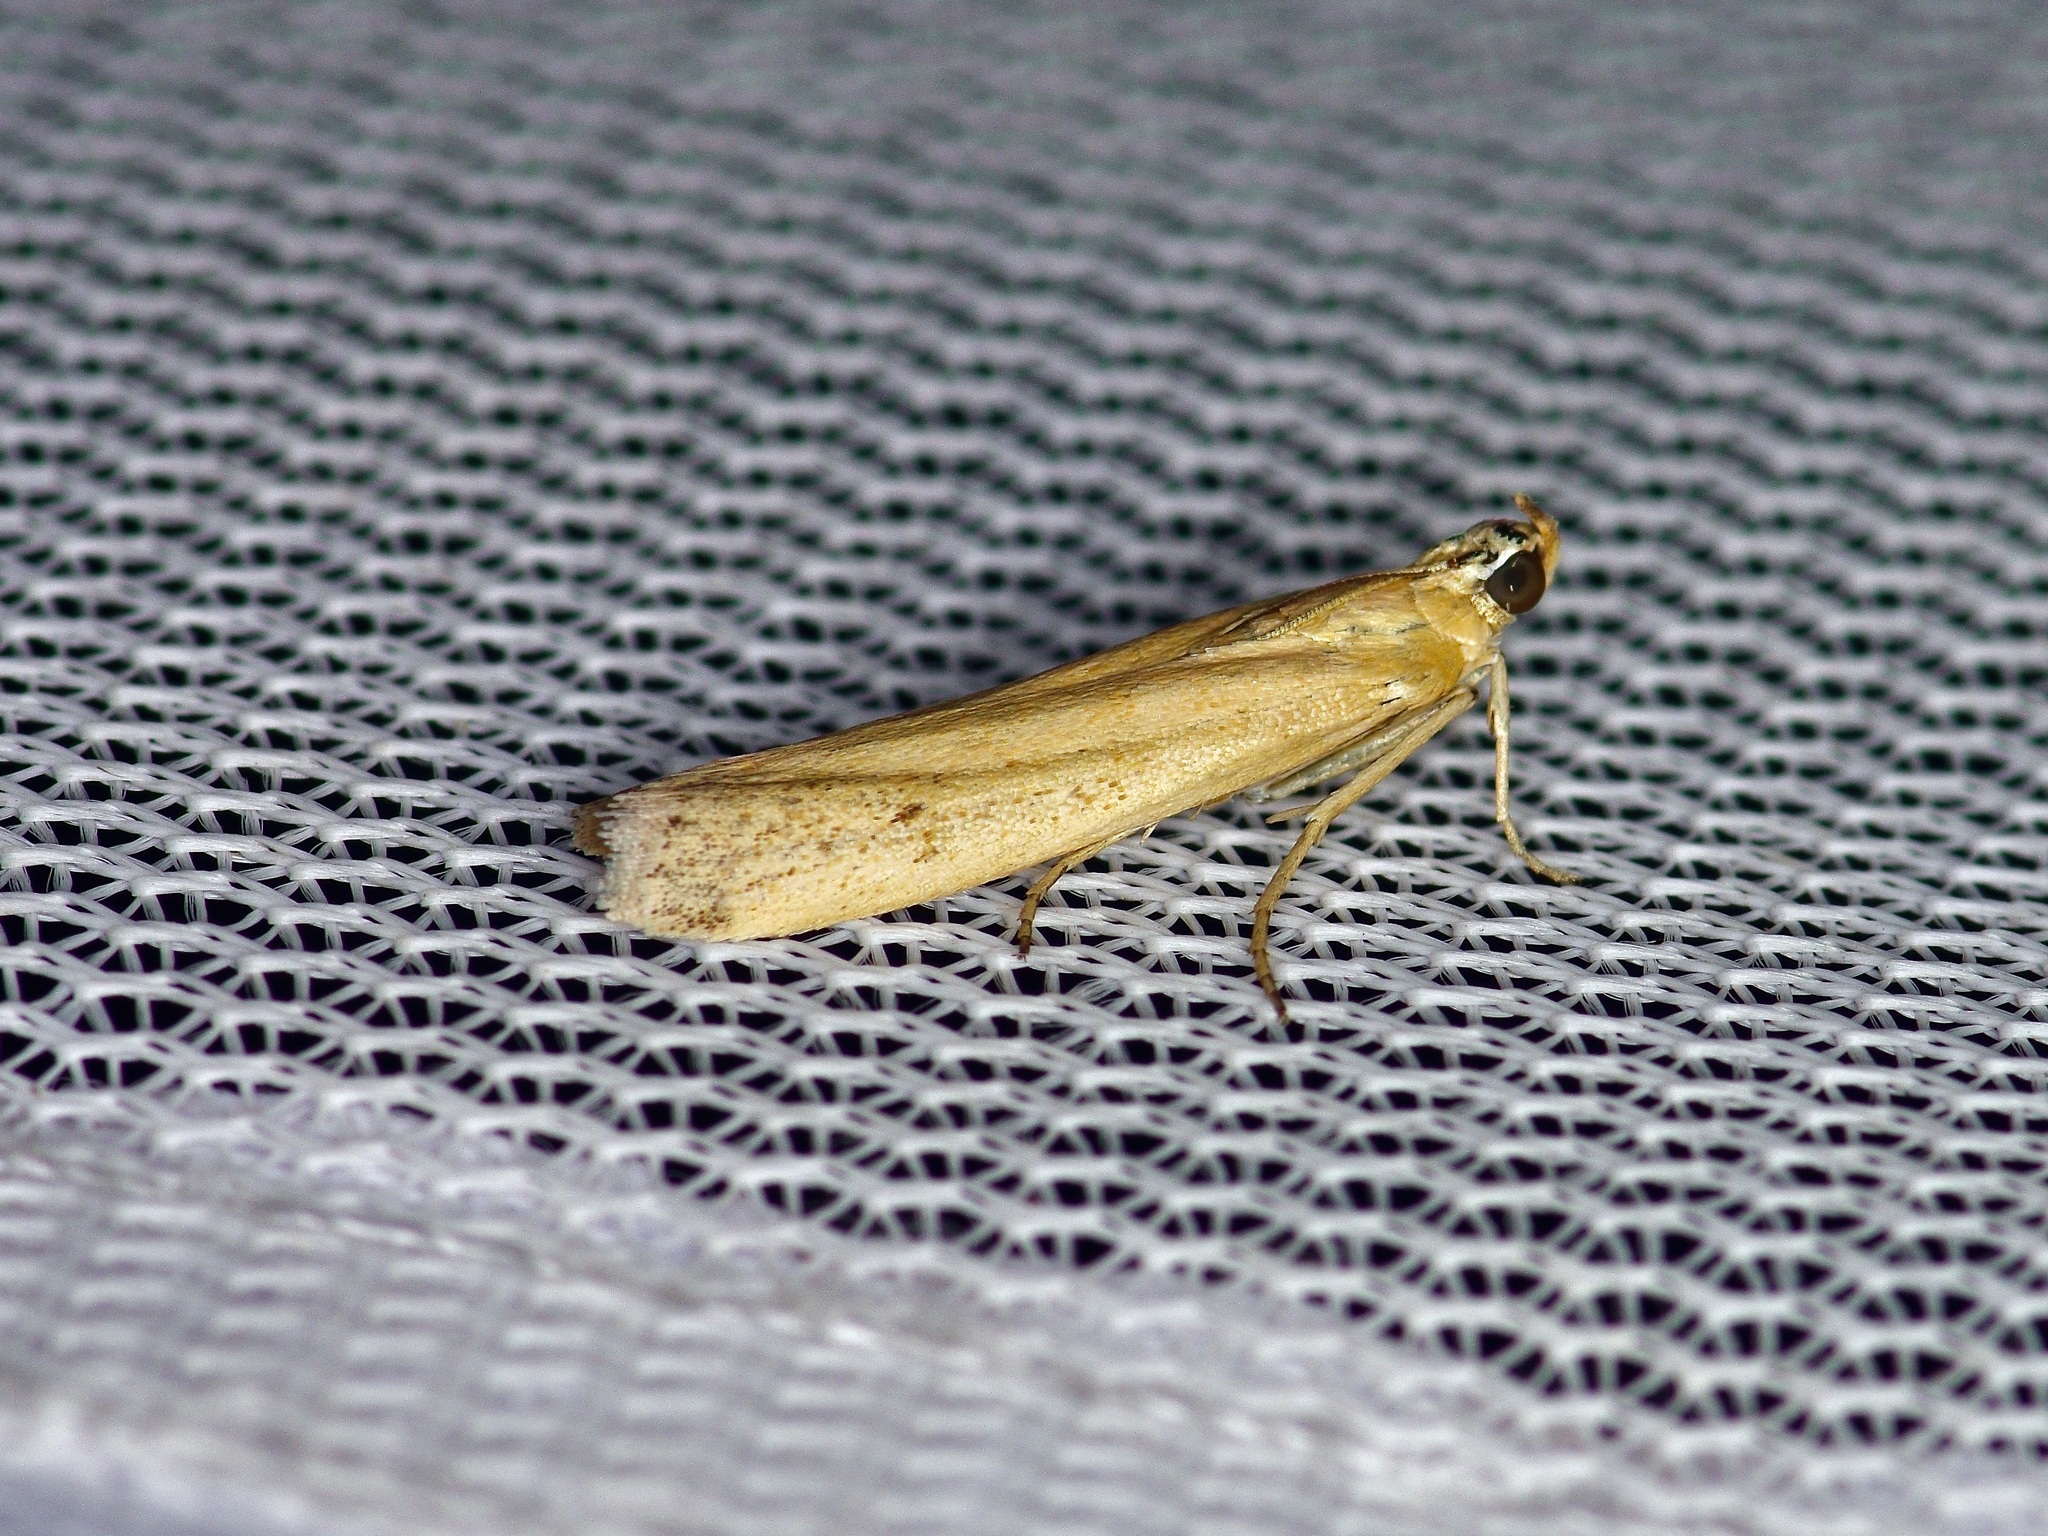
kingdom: Animalia
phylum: Arthropoda
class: Insecta
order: Lepidoptera
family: Pyralidae
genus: Homoeosoma
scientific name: Homoeosoma electella
